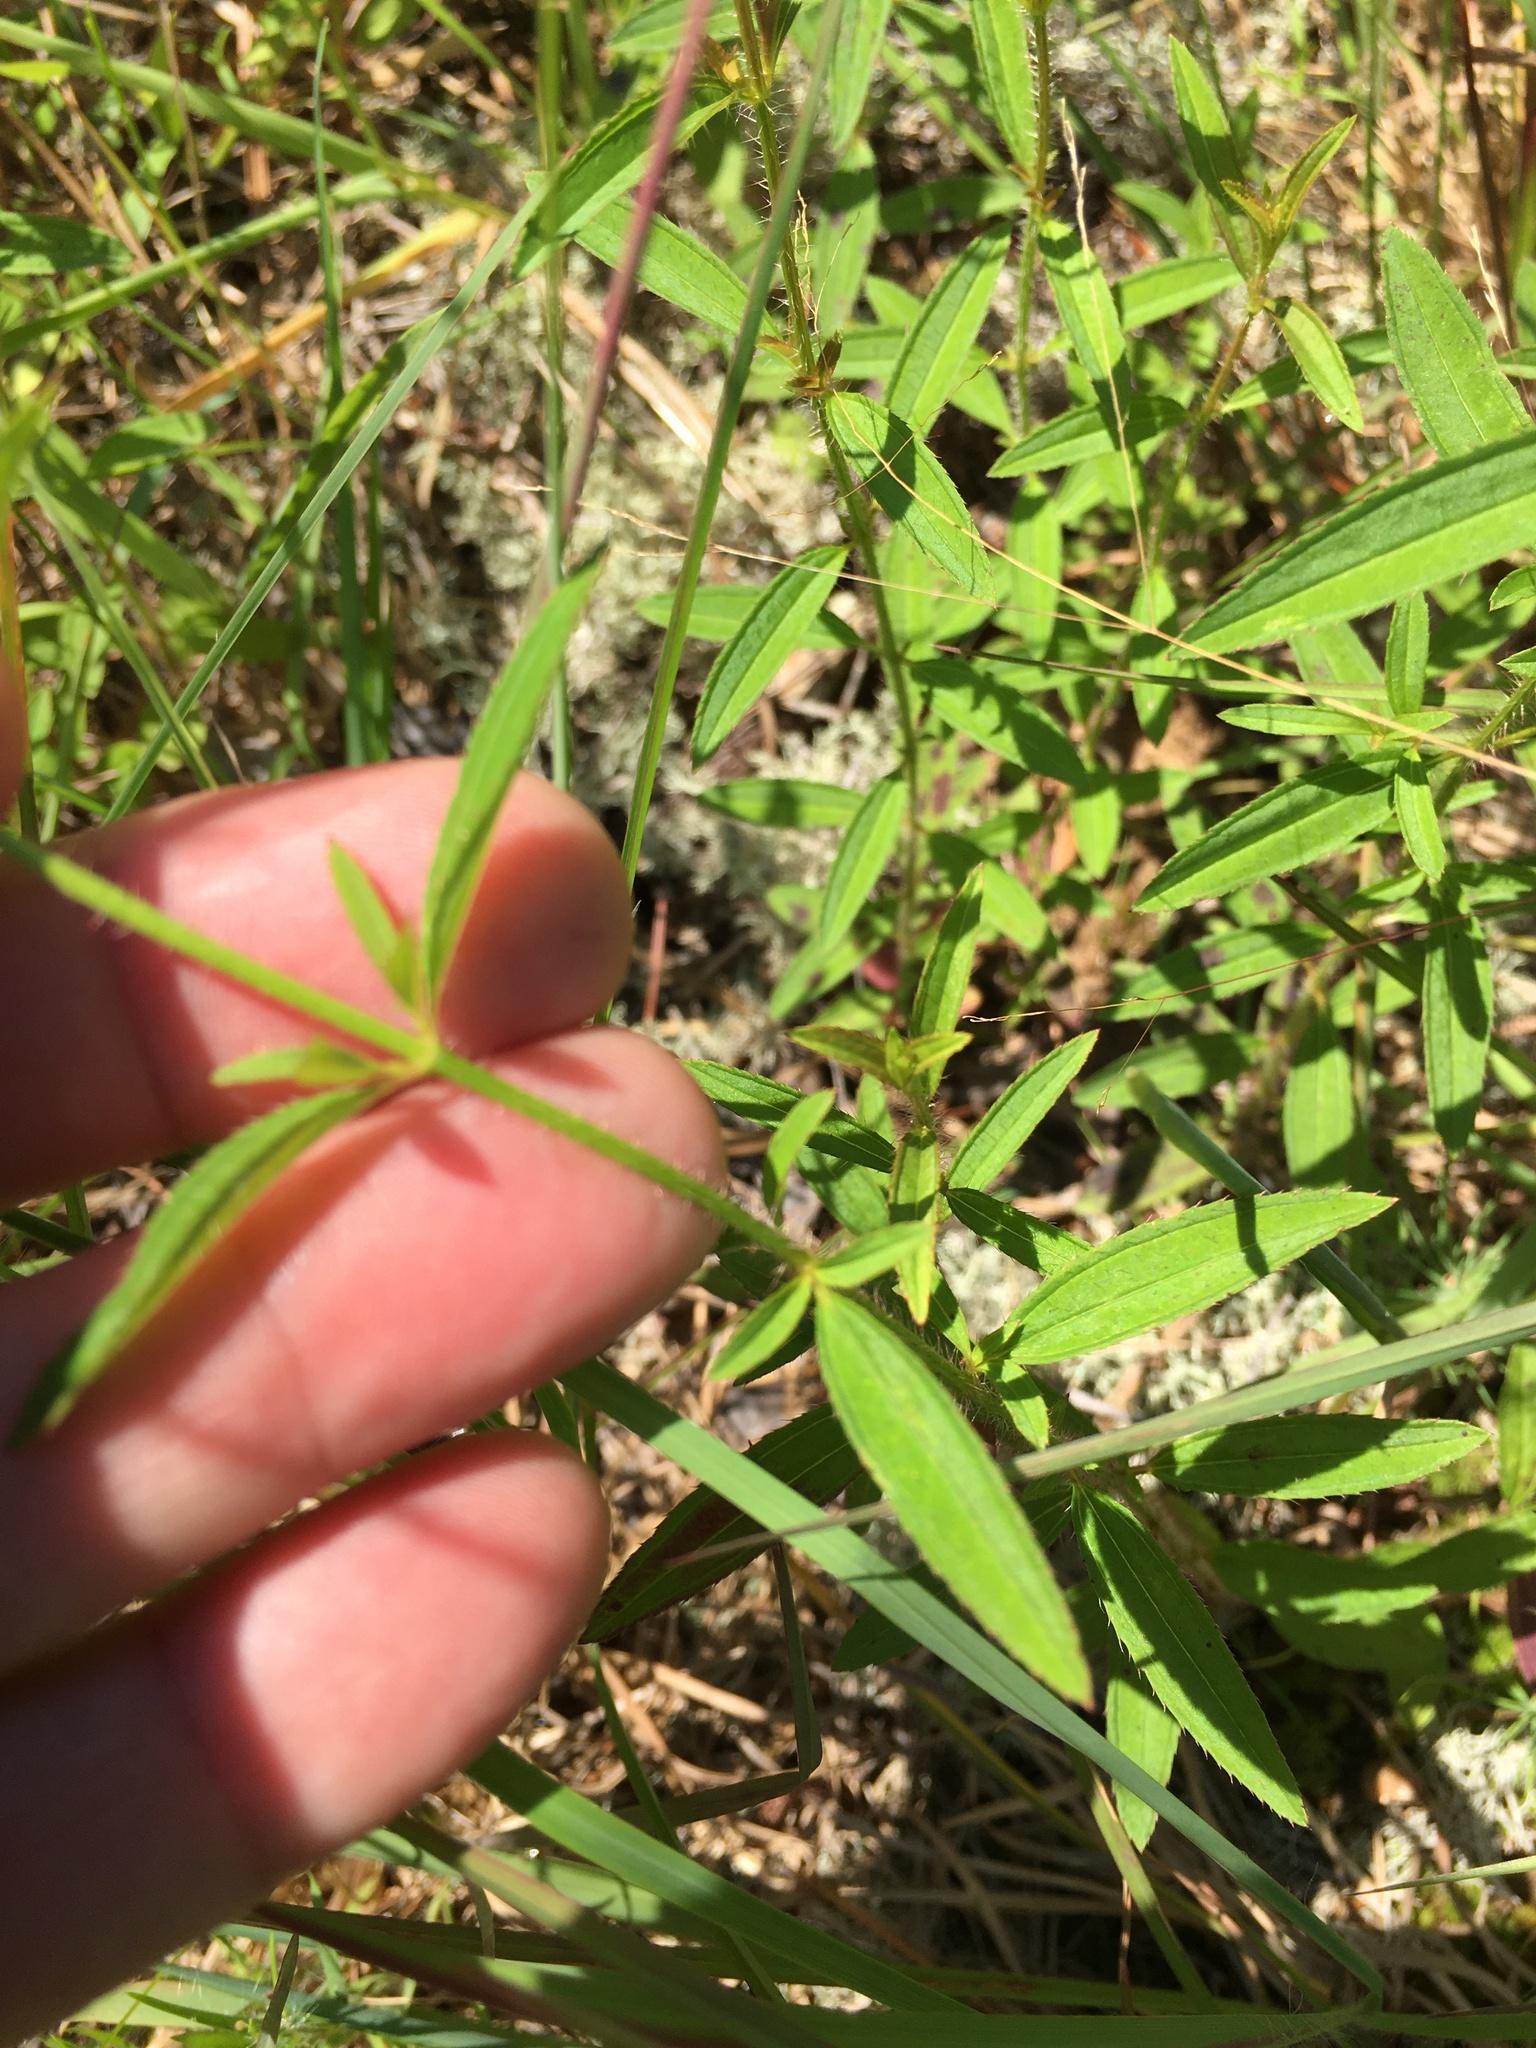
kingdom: Plantae
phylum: Tracheophyta
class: Magnoliopsida
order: Myrtales
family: Melastomataceae
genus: Rhexia
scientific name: Rhexia mariana
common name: Dull meadow-pitcher
